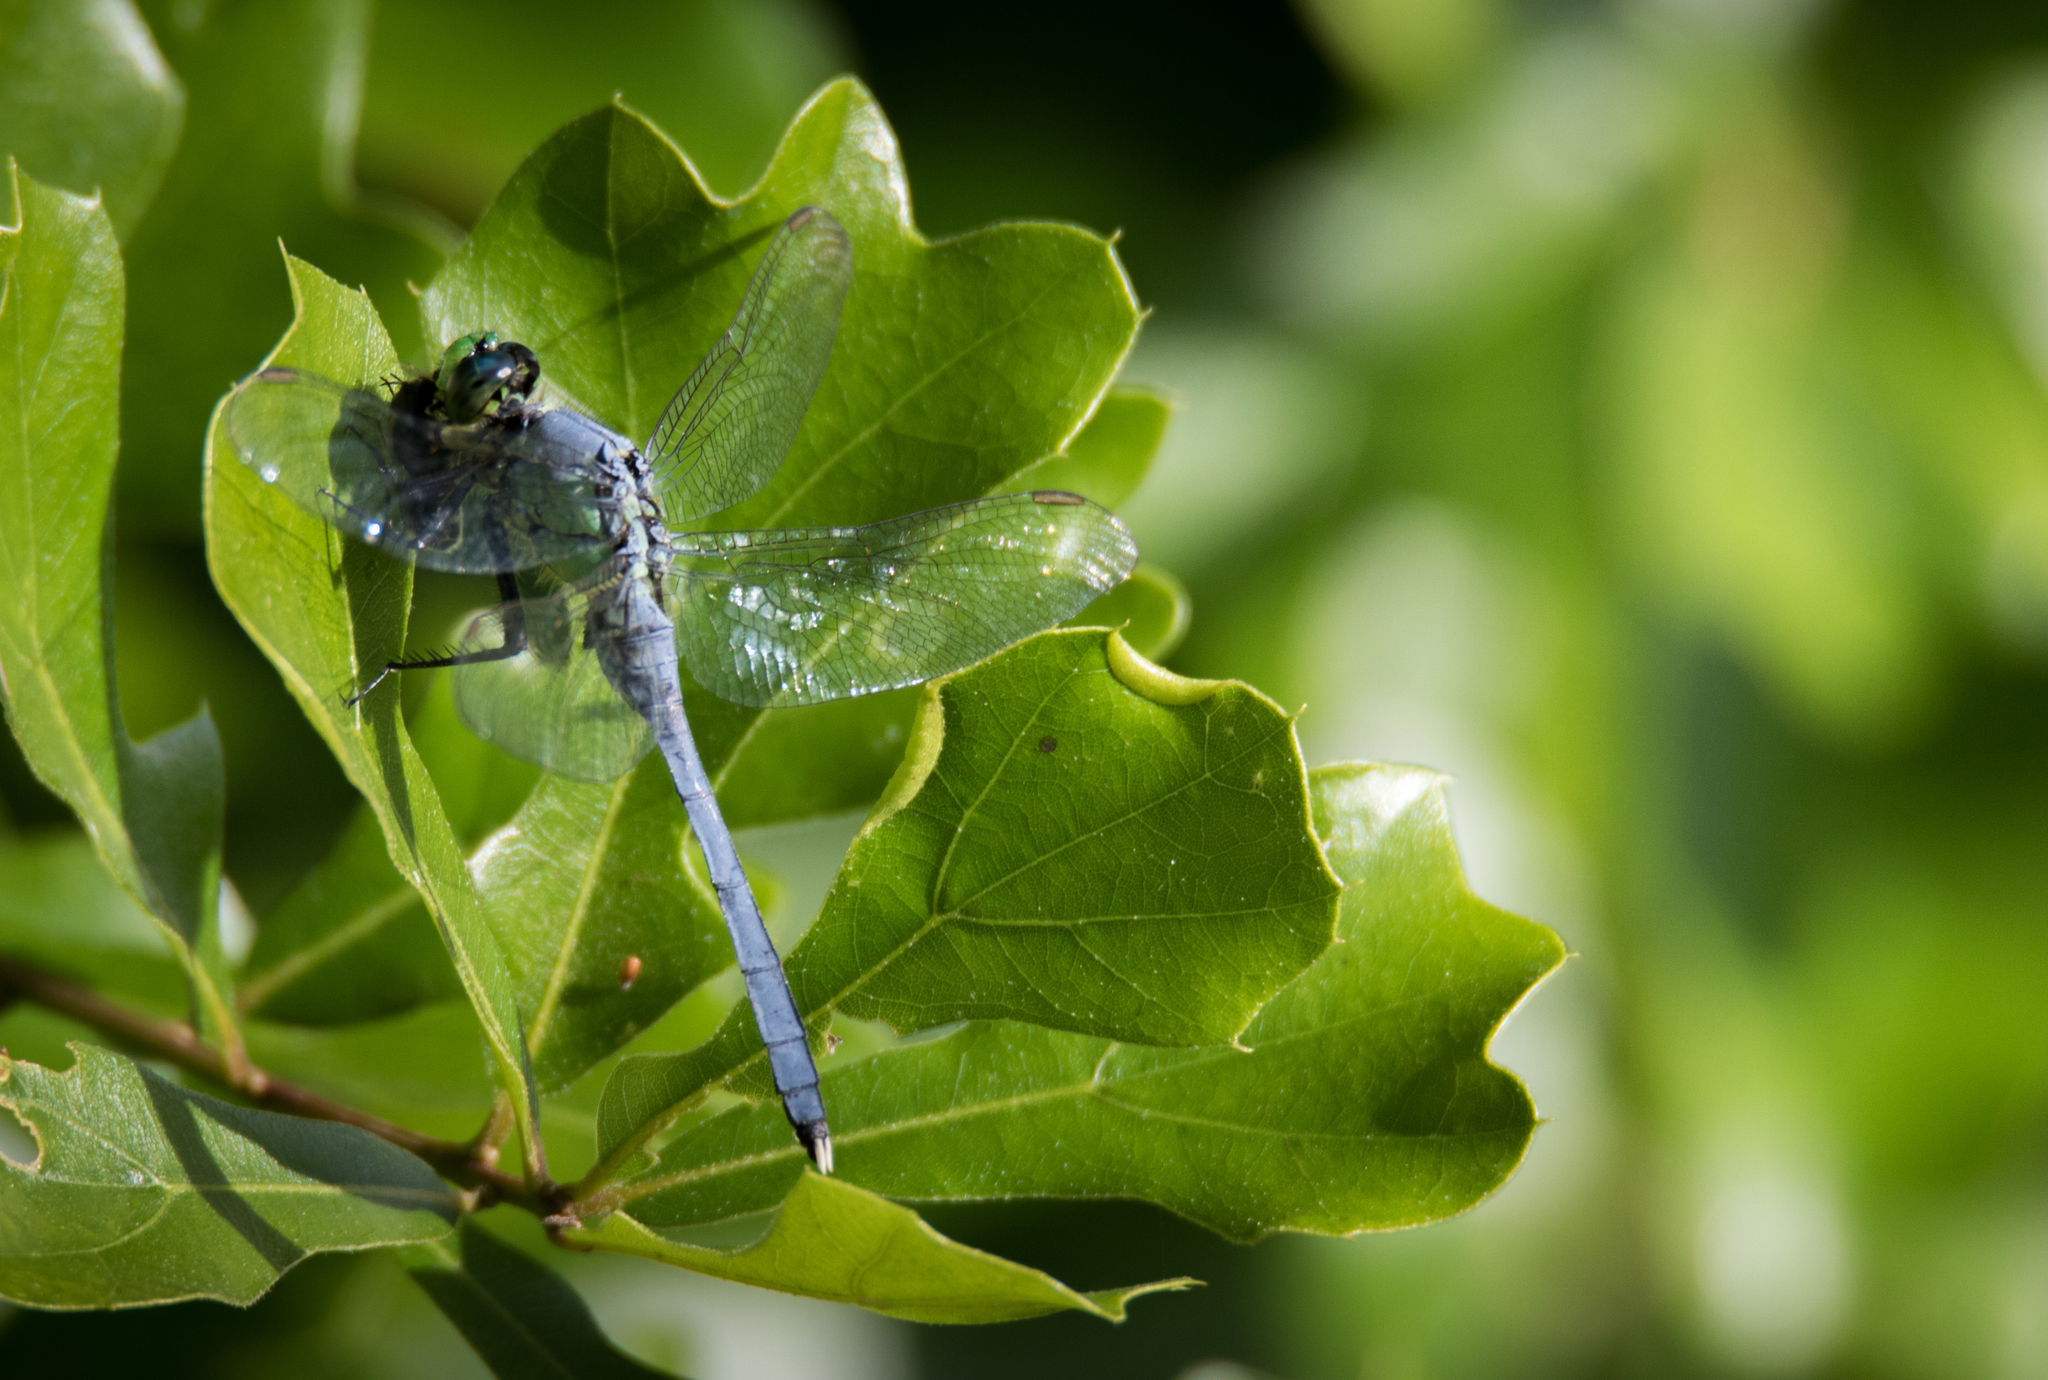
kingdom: Animalia
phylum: Arthropoda
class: Insecta
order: Odonata
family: Libellulidae
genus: Erythemis
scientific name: Erythemis simplicicollis
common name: Eastern pondhawk
